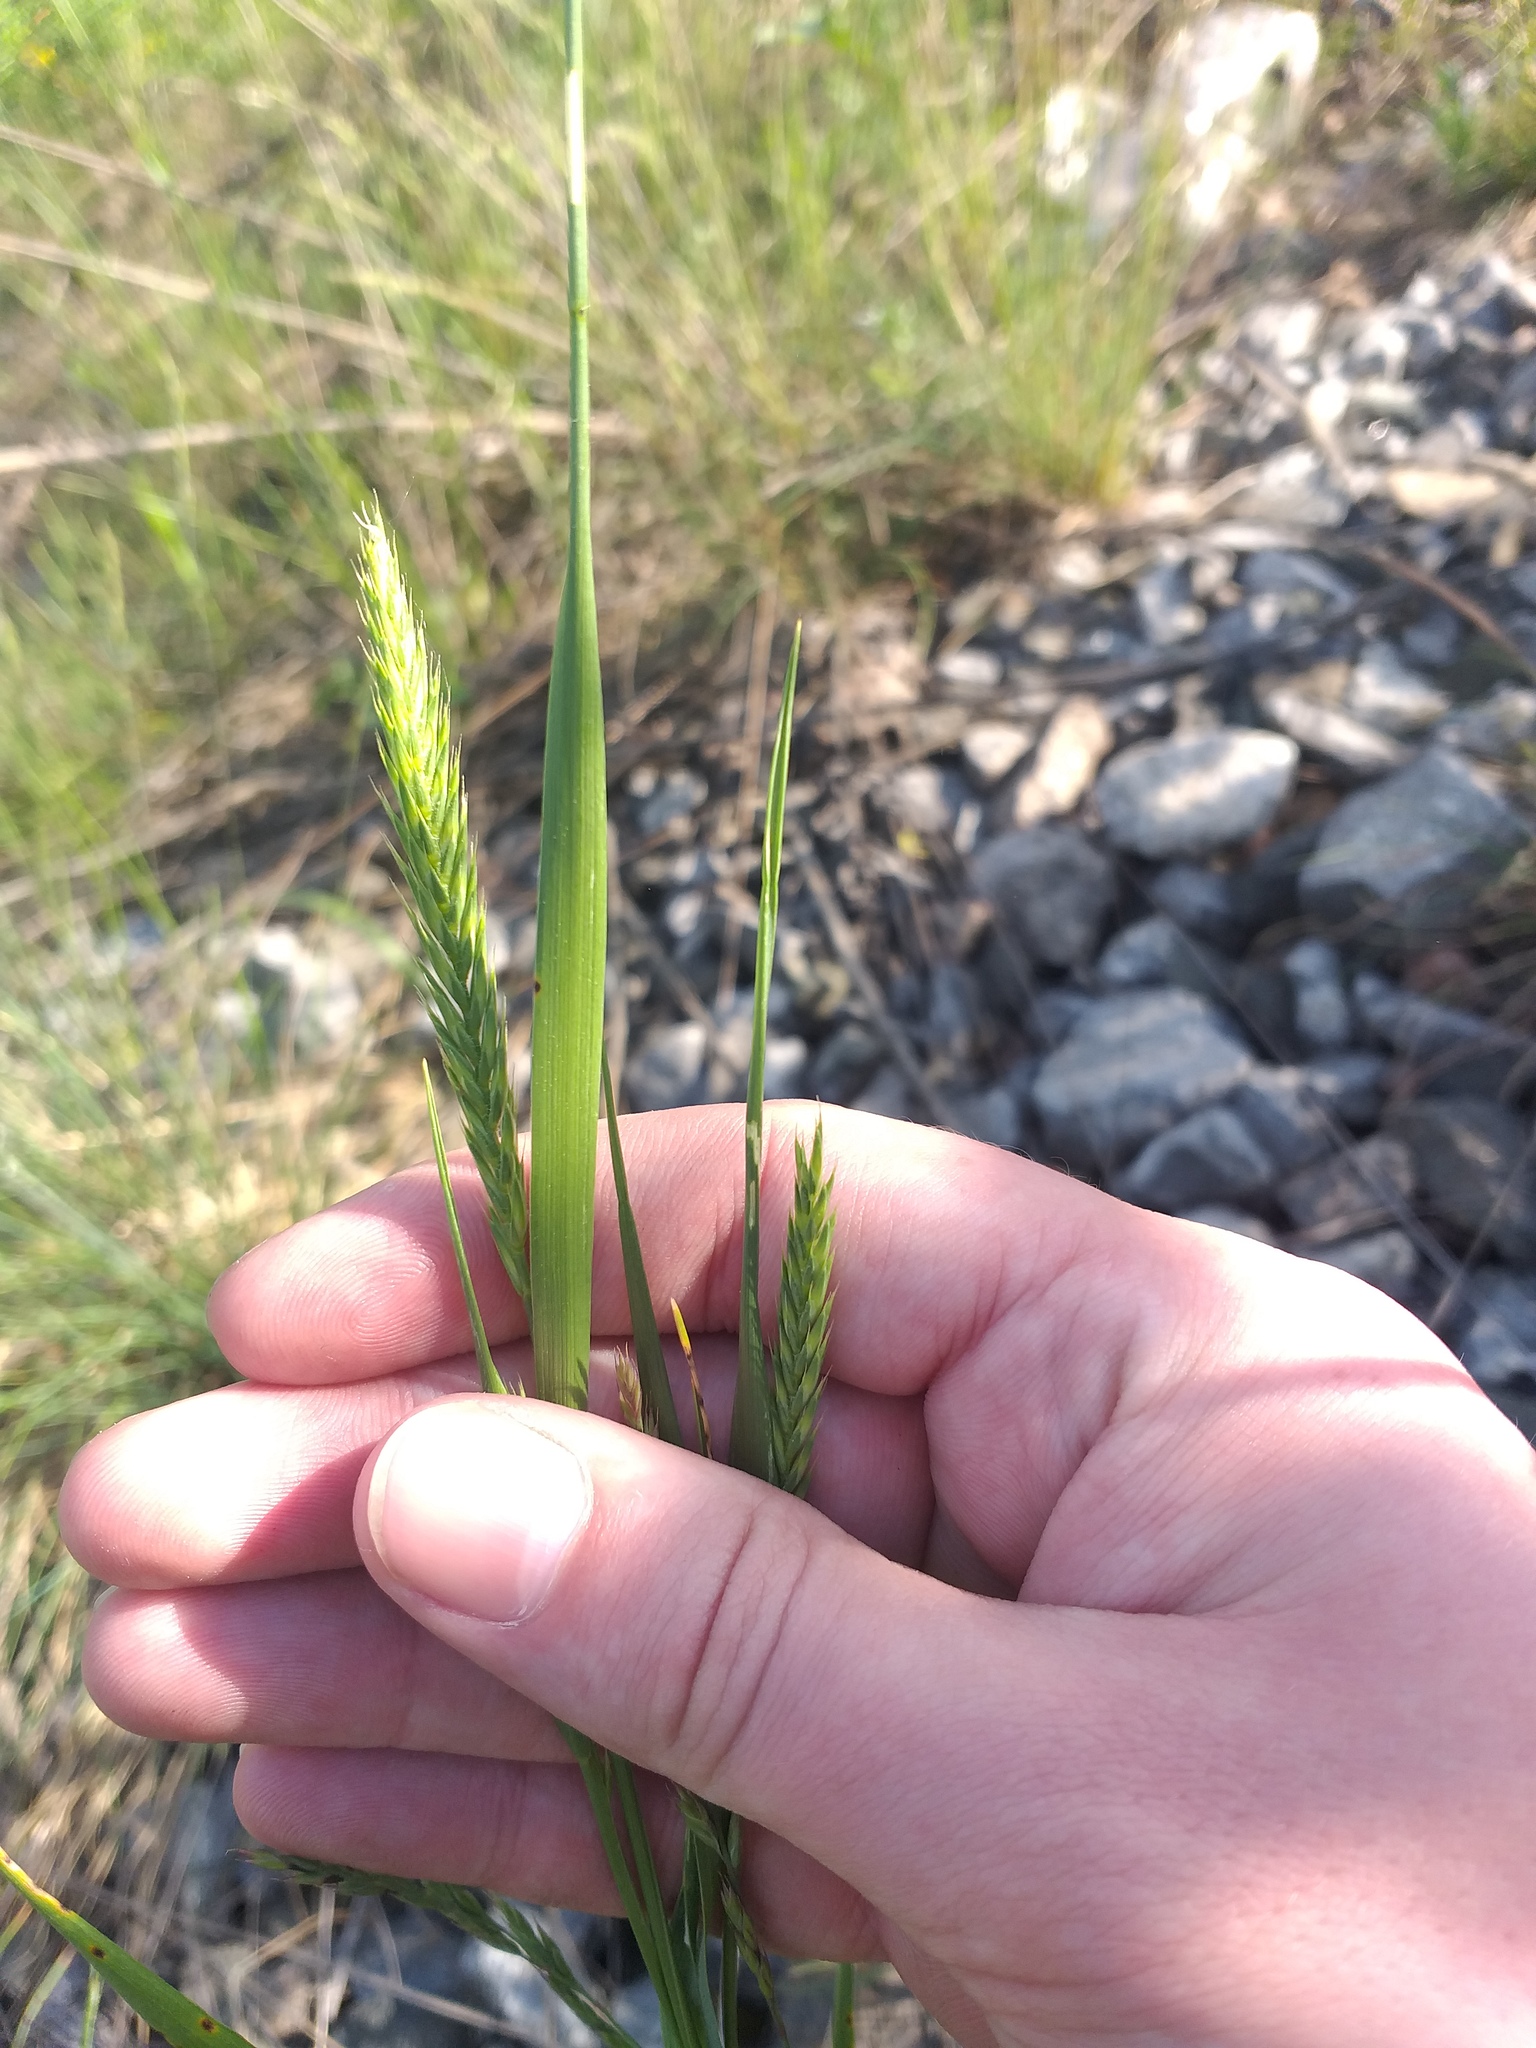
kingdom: Plantae
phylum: Tracheophyta
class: Liliopsida
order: Poales
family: Poaceae
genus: Agropyron
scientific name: Agropyron cristatum
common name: Crested wheatgrass
